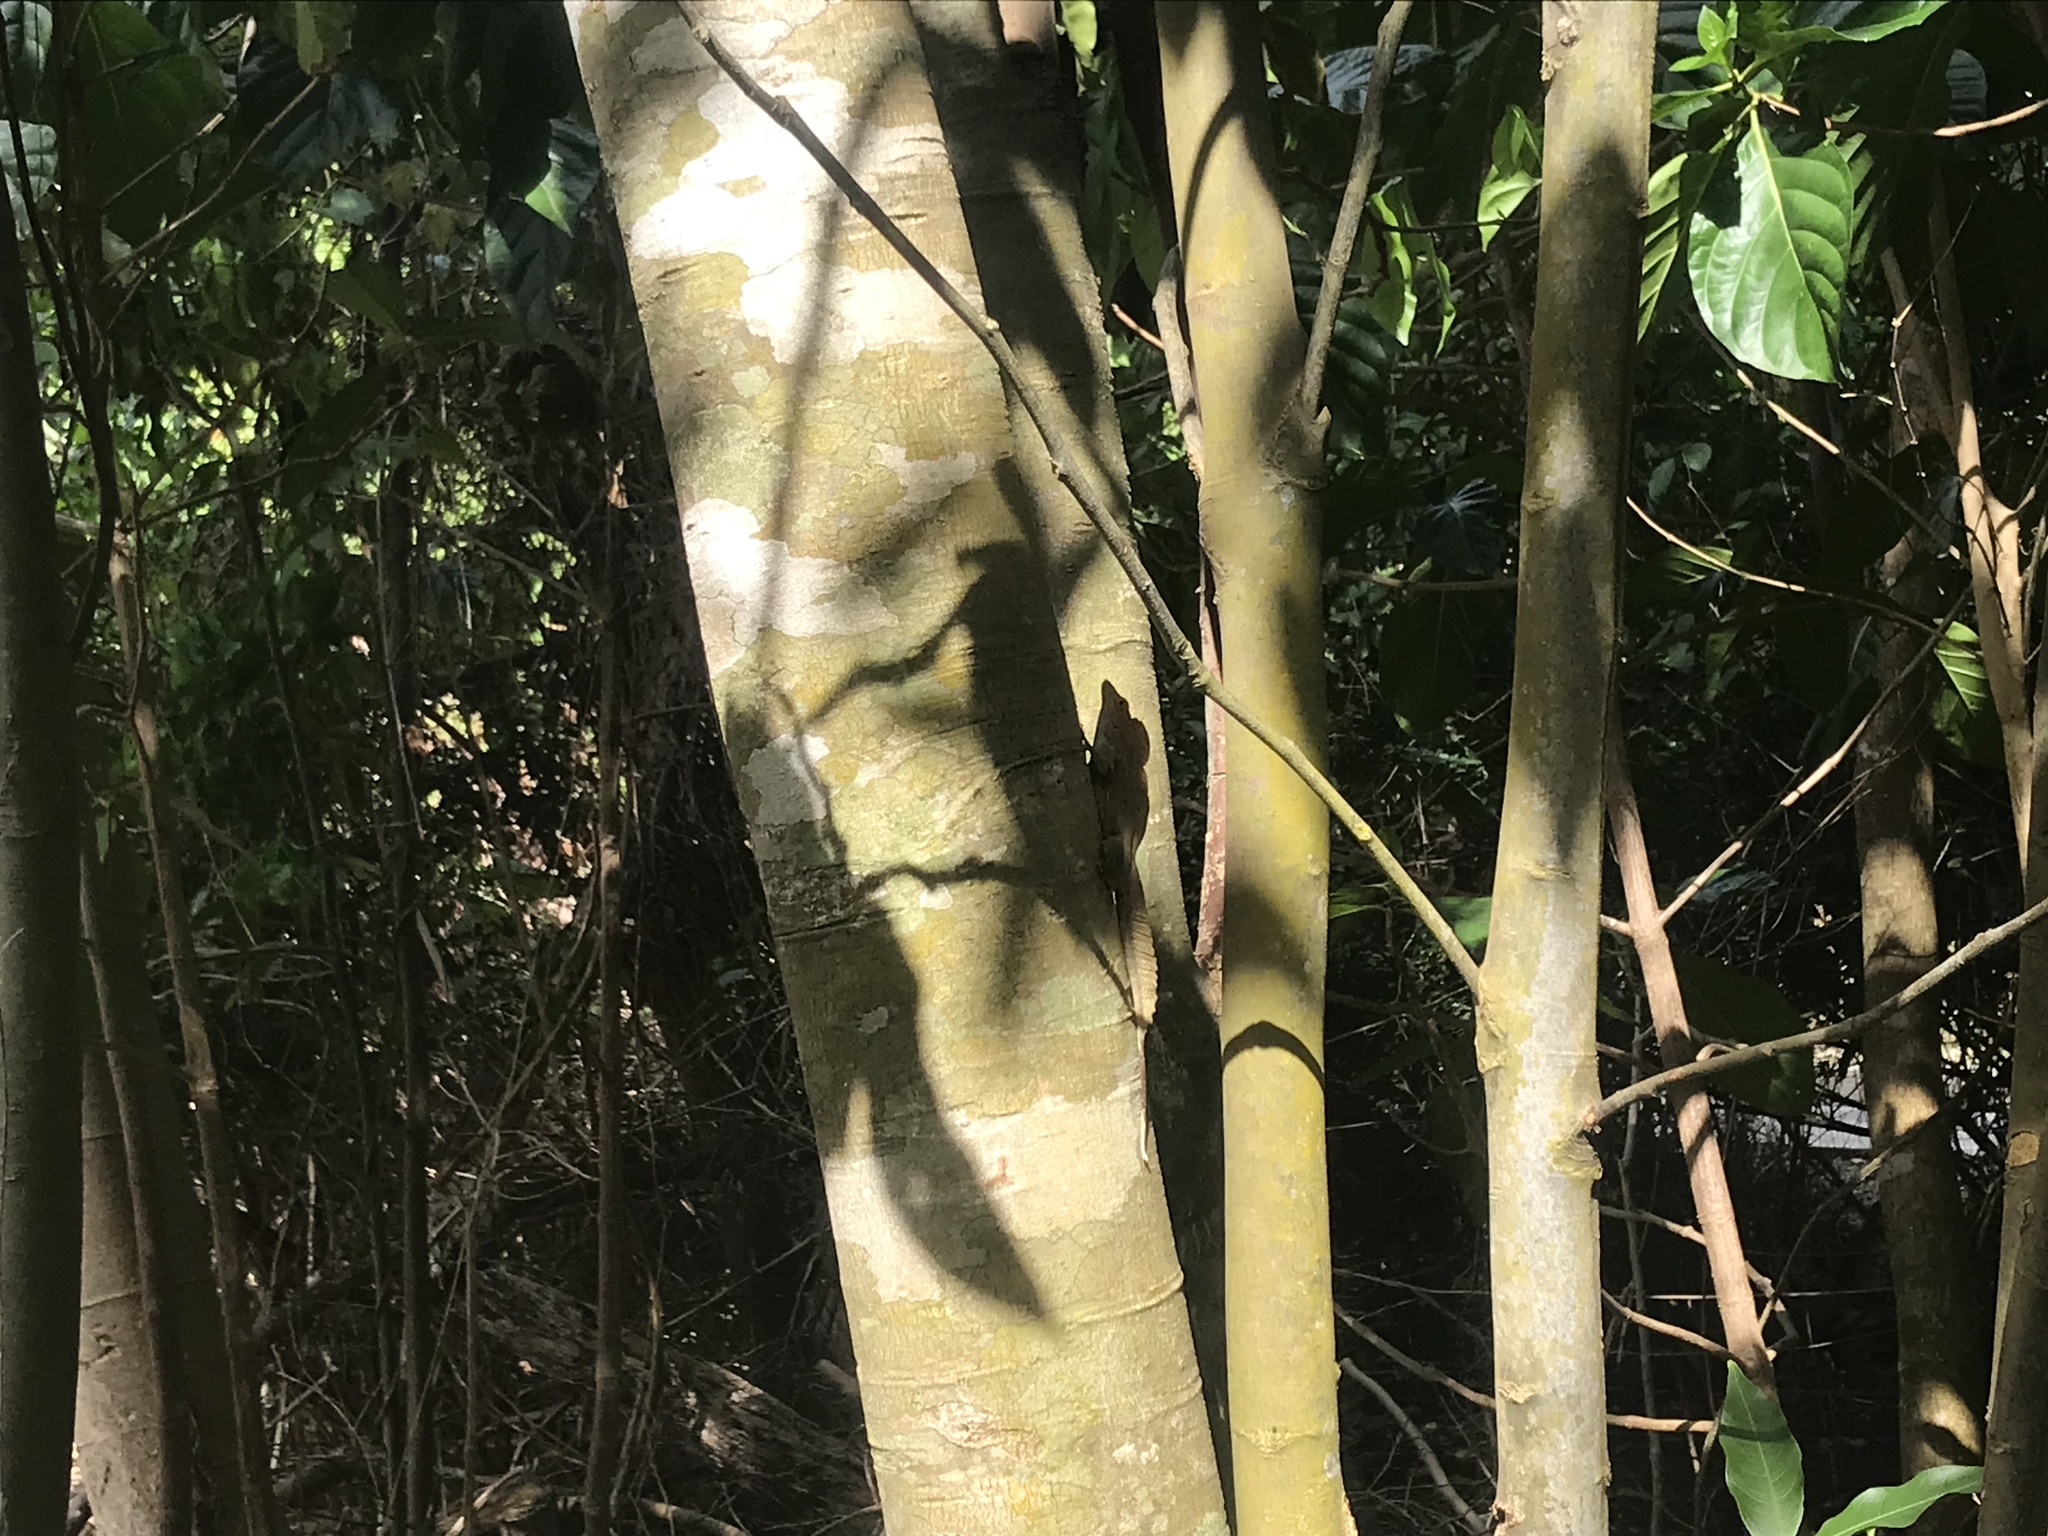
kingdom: Animalia
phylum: Chordata
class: Squamata
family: Dactyloidae
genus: Anolis
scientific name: Anolis cristatellus
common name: Crested anole
